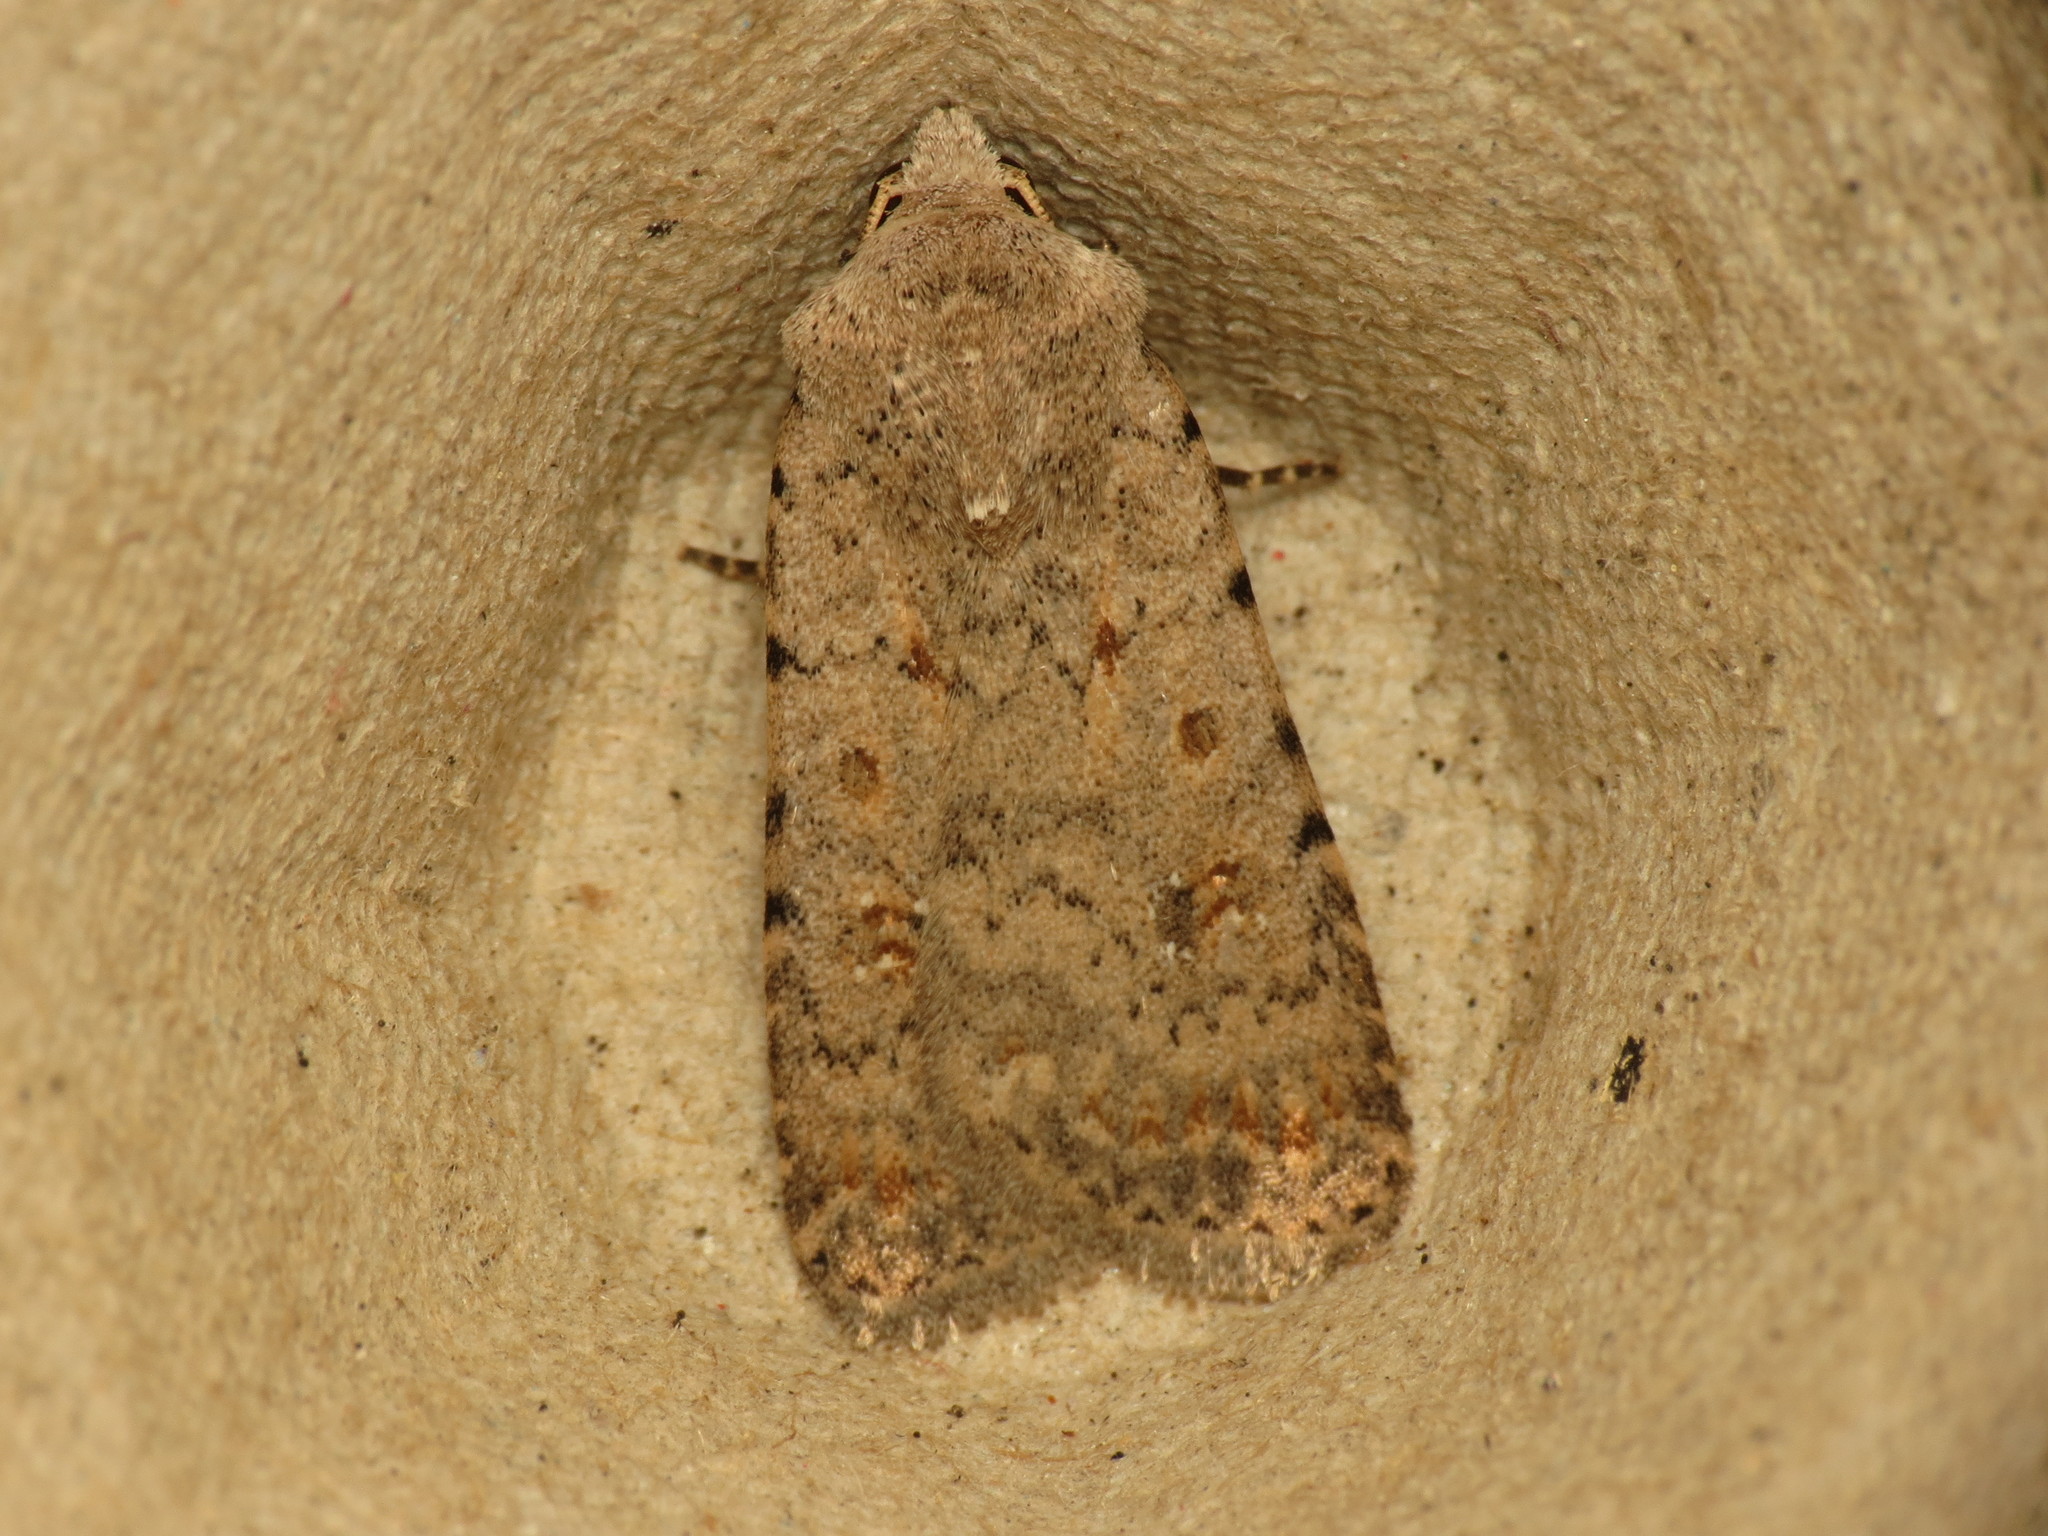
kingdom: Animalia
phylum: Arthropoda
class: Insecta
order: Lepidoptera
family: Noctuidae
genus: Caradrina
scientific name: Caradrina clavipalpis
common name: Pale mottled willow
